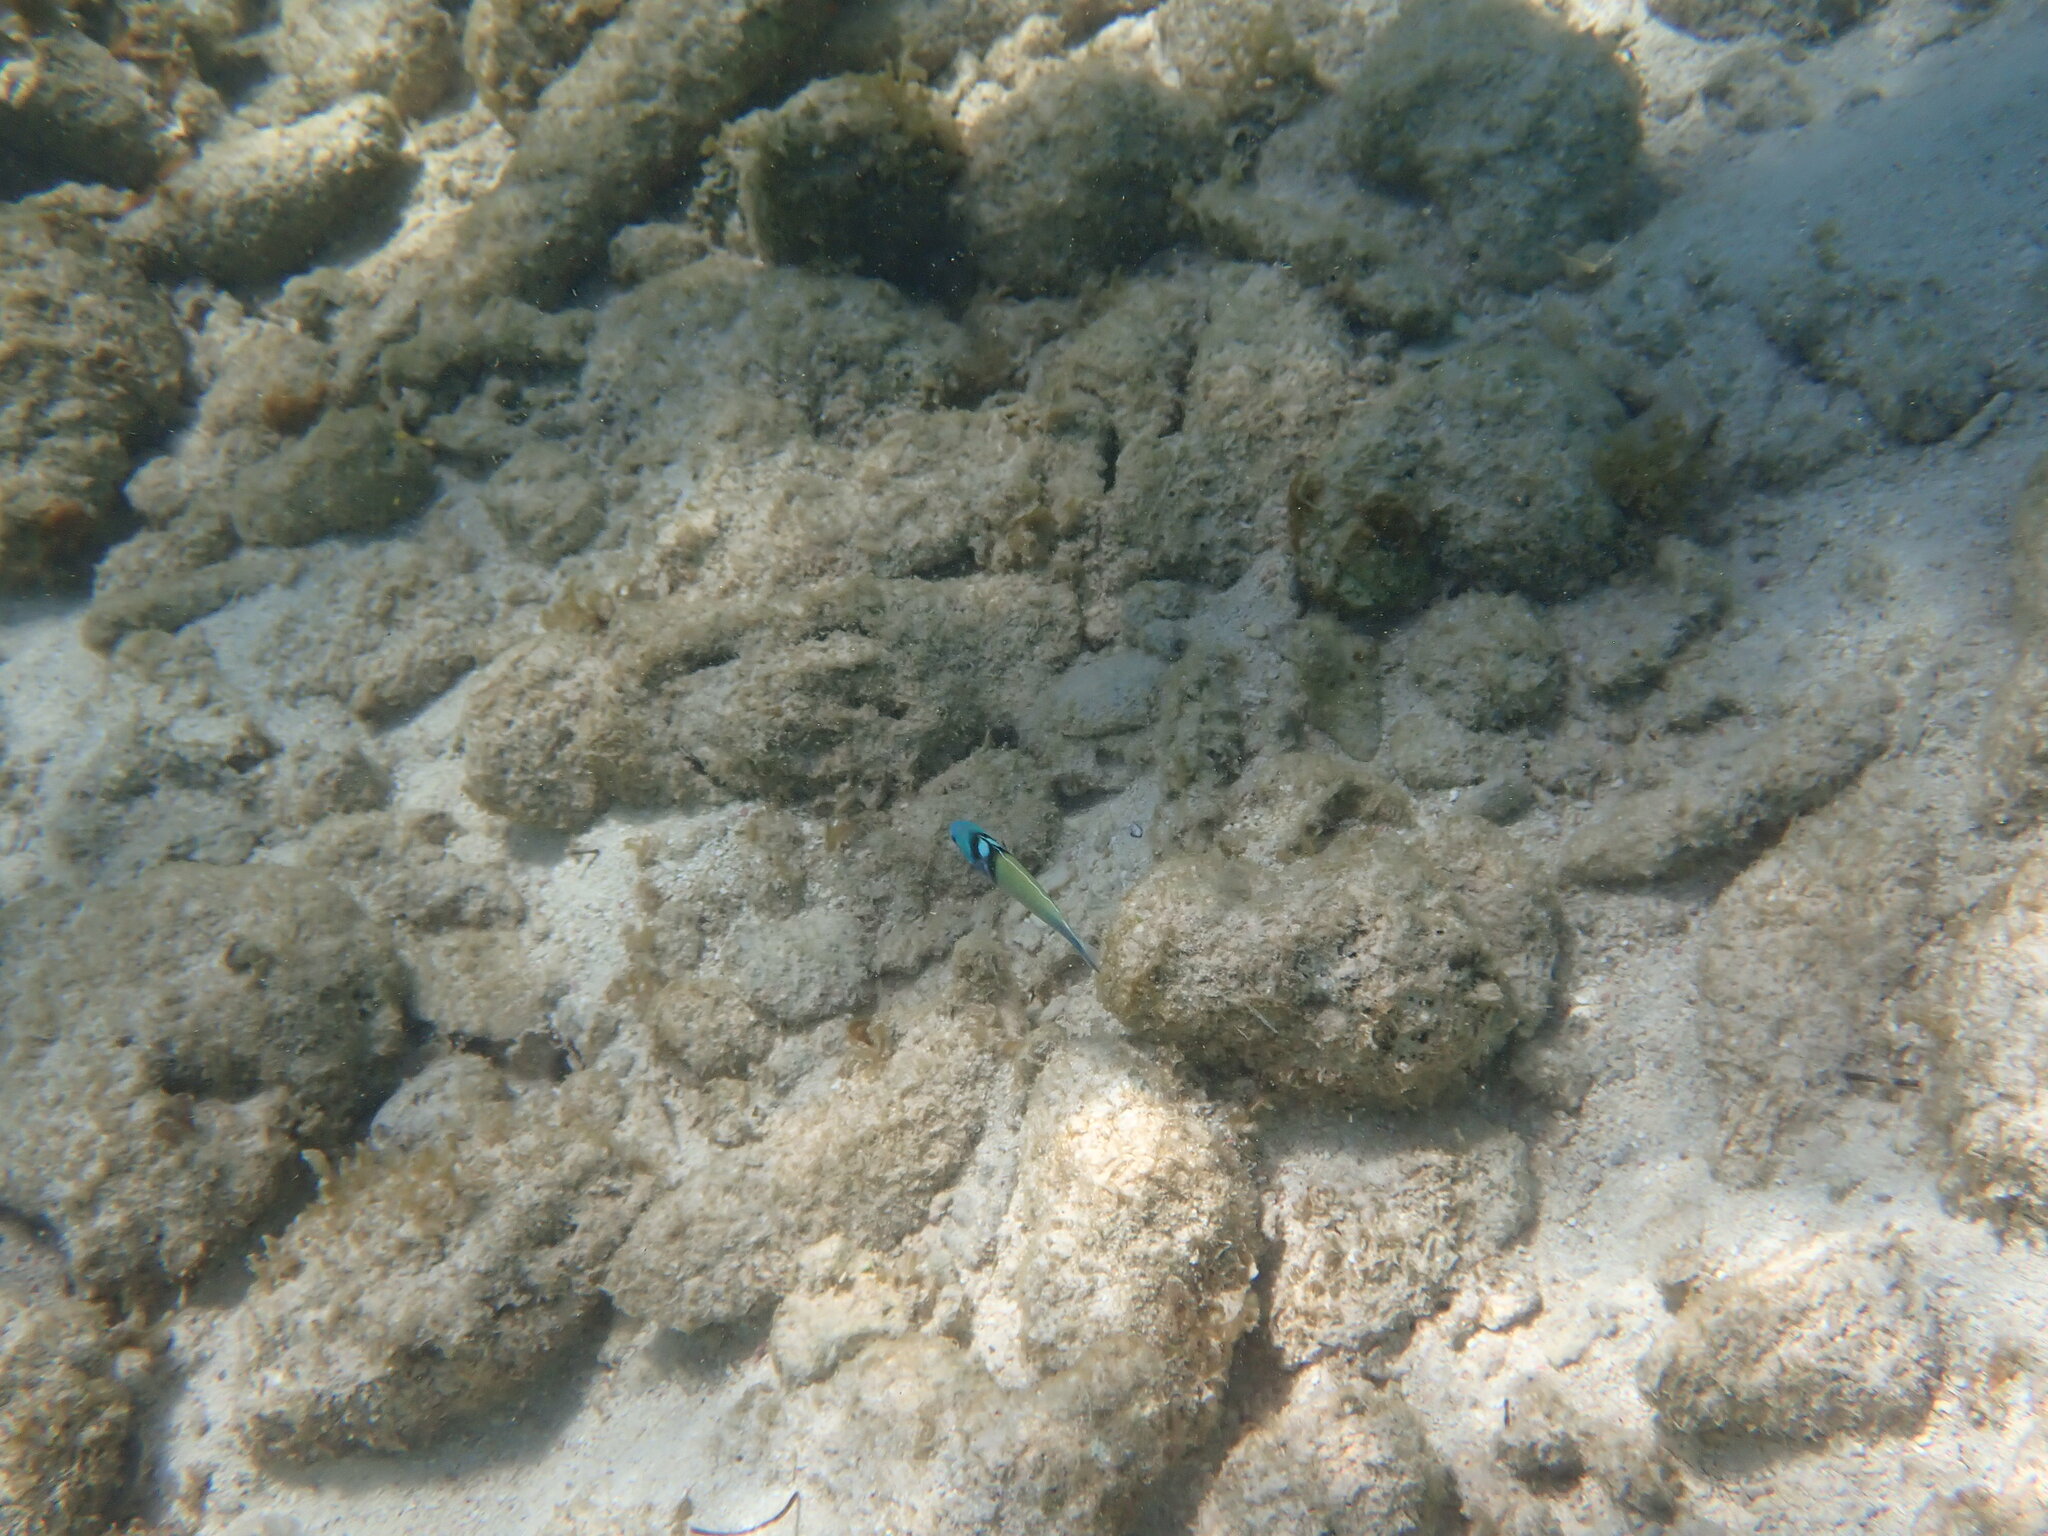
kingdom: Animalia
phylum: Chordata
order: Perciformes
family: Labridae
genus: Thalassoma
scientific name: Thalassoma bifasciatum
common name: Bluehead wrasse
